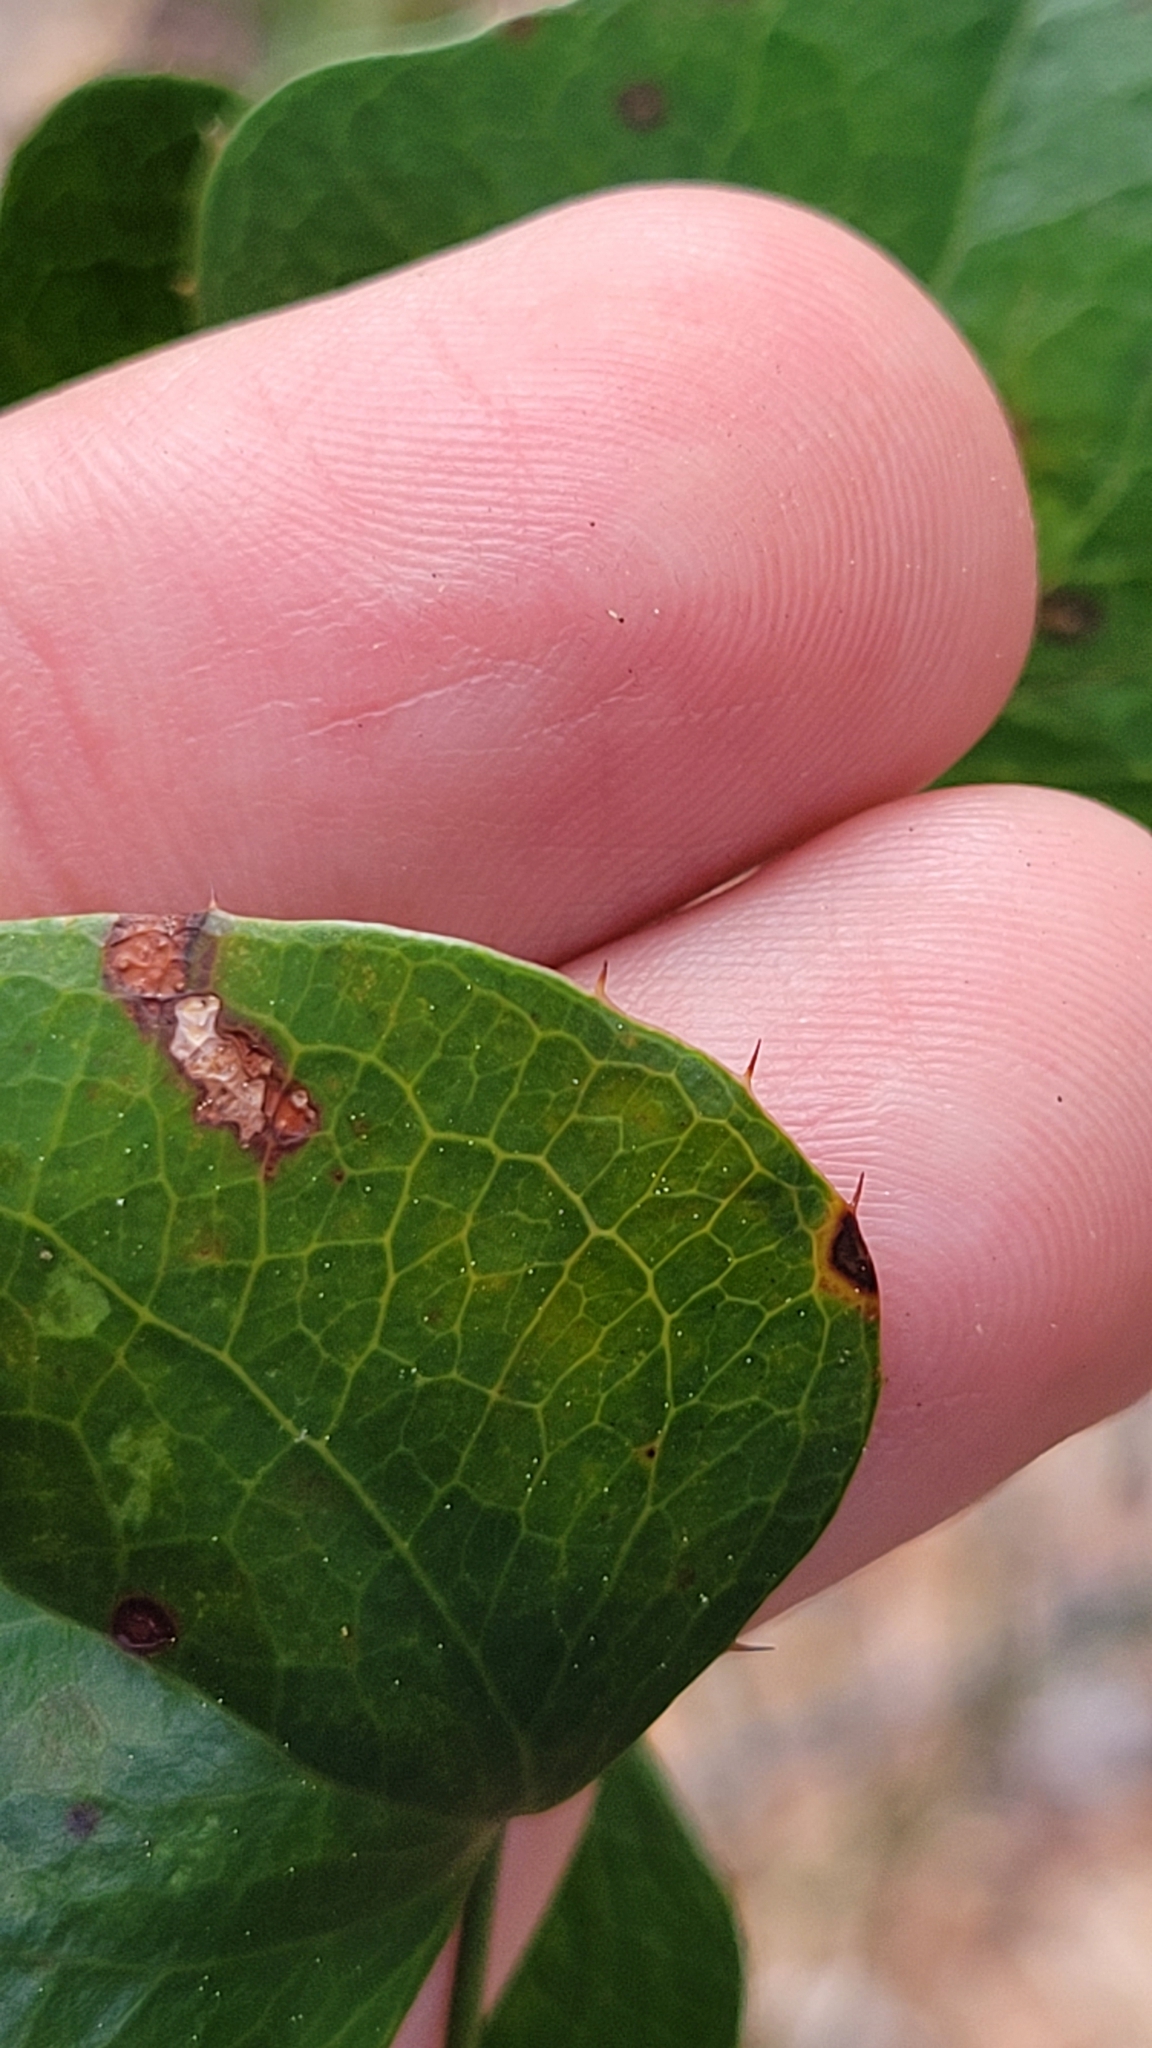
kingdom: Plantae
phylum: Tracheophyta
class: Liliopsida
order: Liliales
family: Smilacaceae
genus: Smilax
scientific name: Smilax bona-nox
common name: Catbrier
